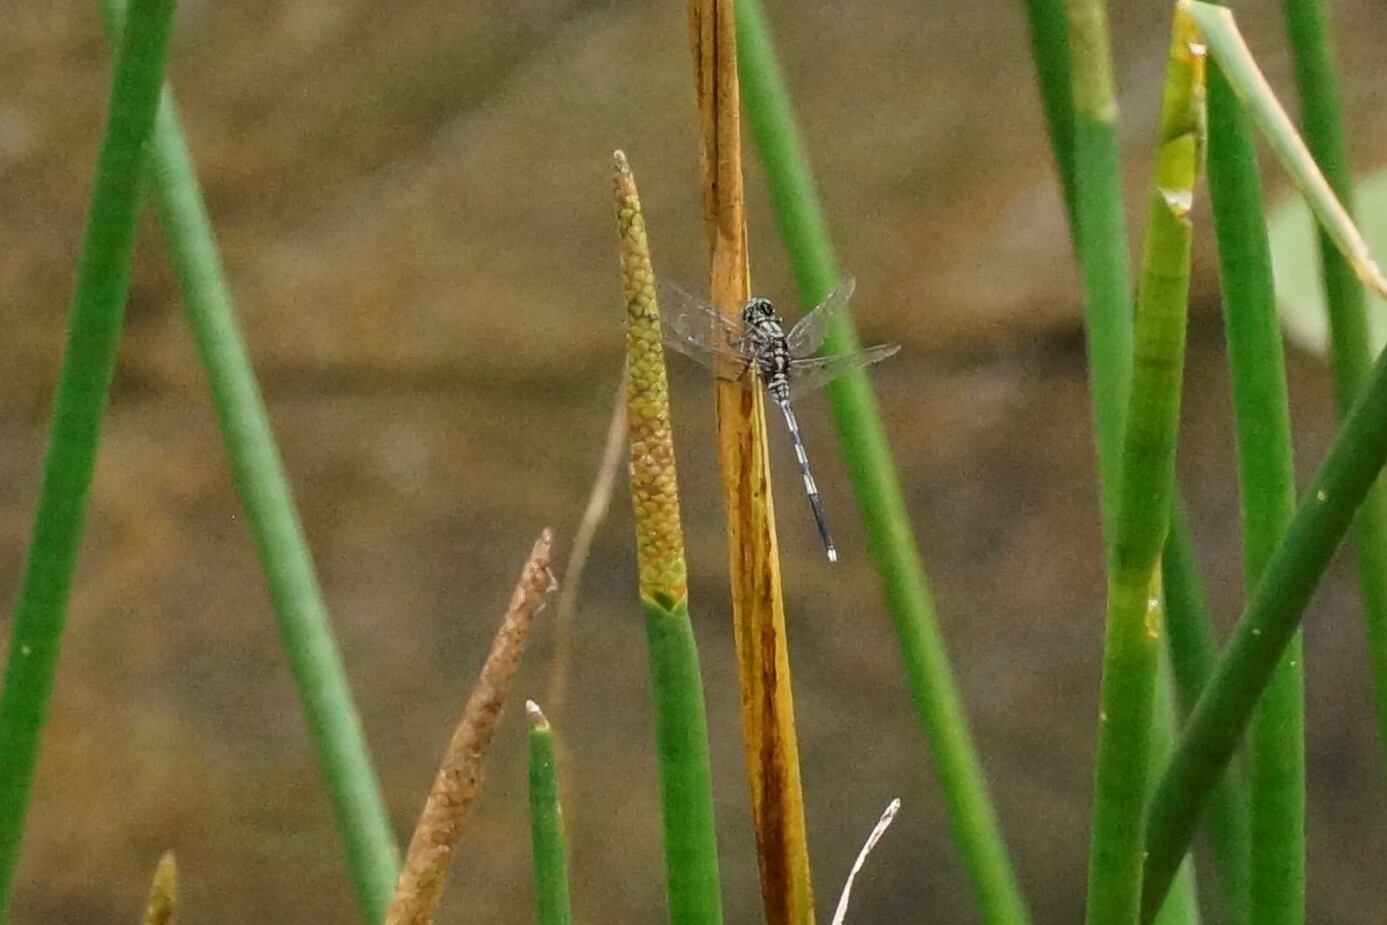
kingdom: Animalia
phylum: Arthropoda
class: Insecta
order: Odonata
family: Libellulidae
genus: Orthetrum
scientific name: Orthetrum sabina
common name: Slender skimmer
